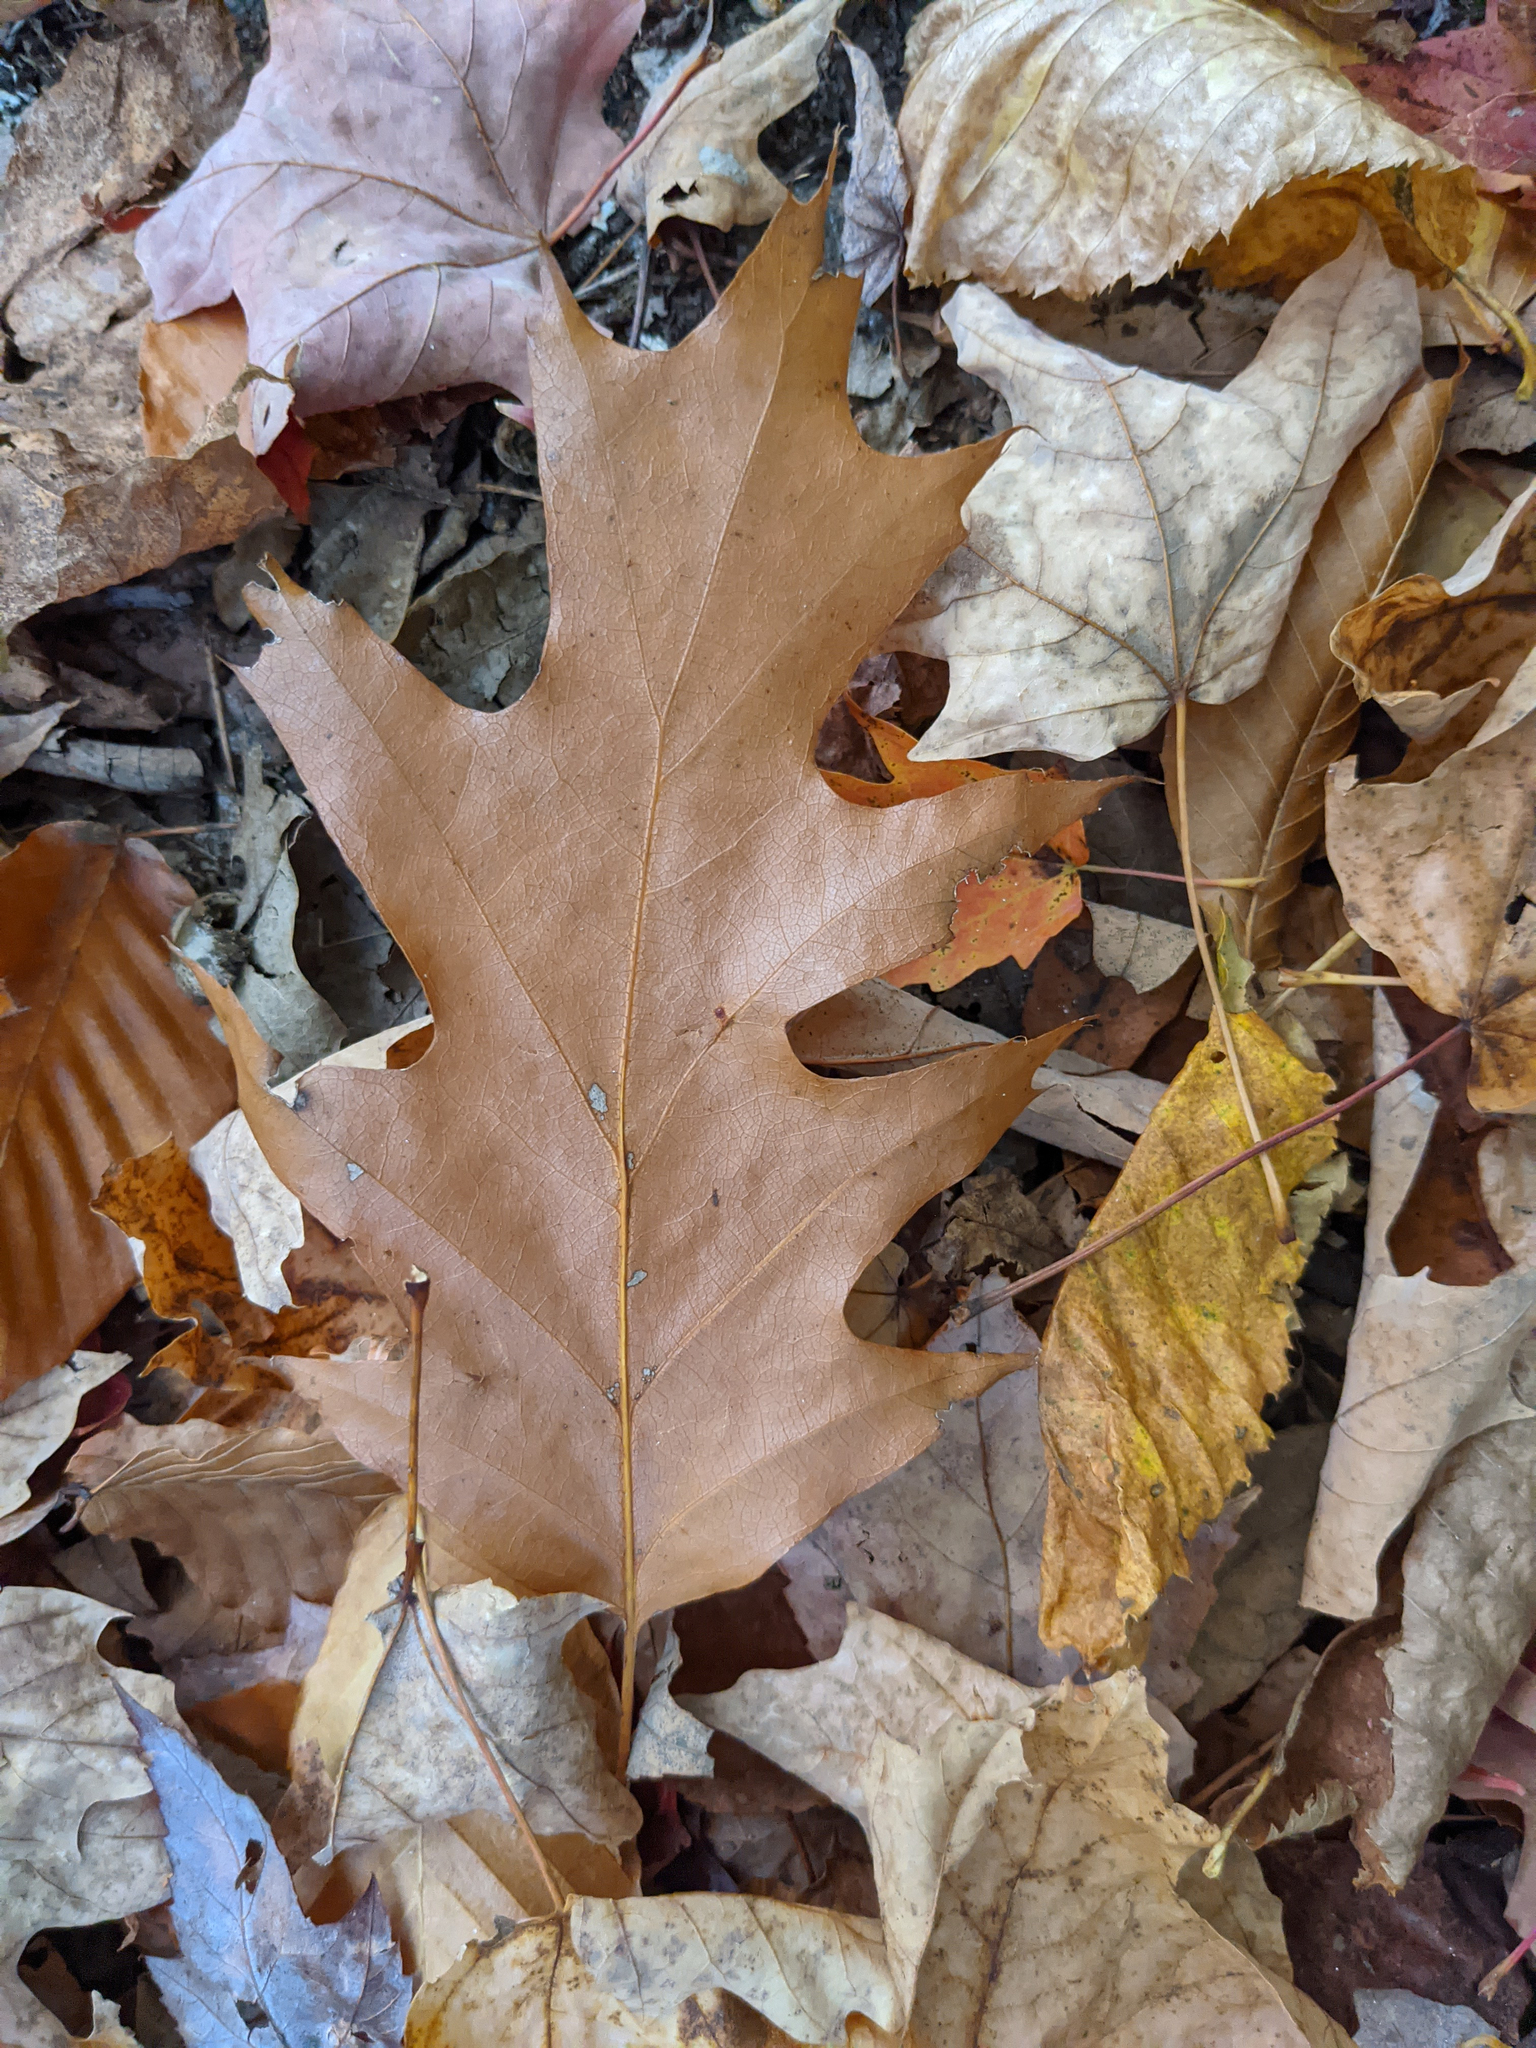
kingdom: Plantae
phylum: Tracheophyta
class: Magnoliopsida
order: Fagales
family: Fagaceae
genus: Quercus
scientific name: Quercus rubra
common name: Red oak
